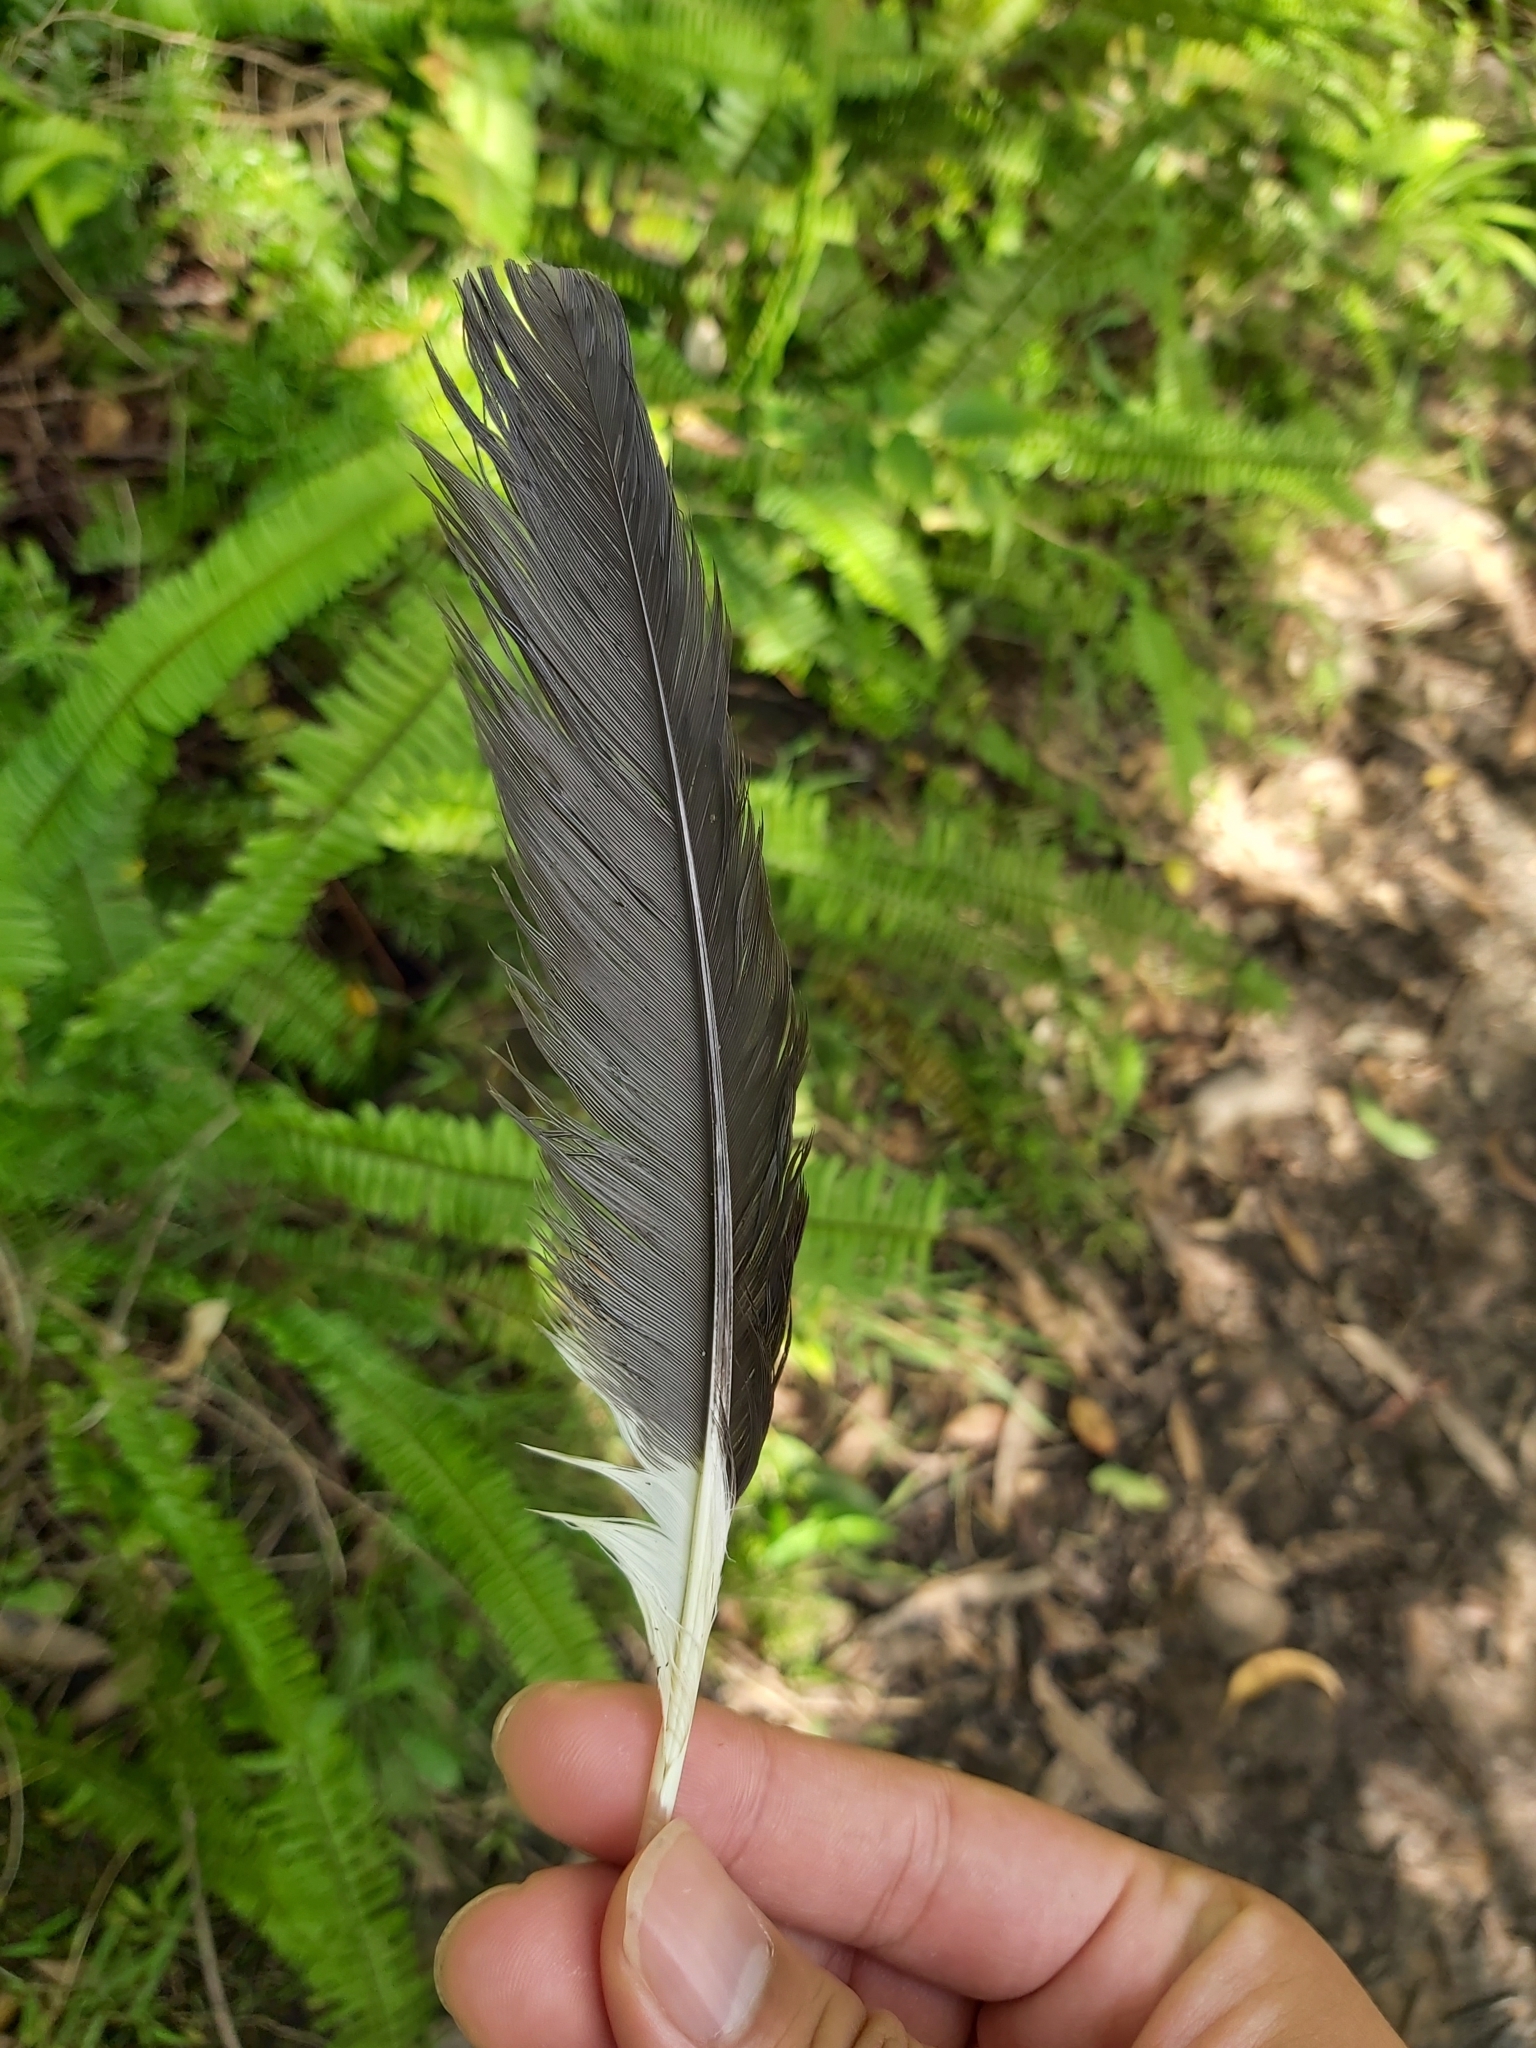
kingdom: Animalia
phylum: Chordata
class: Aves
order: Passeriformes
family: Cracticidae
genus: Strepera
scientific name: Strepera graculina
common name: Pied currawong
